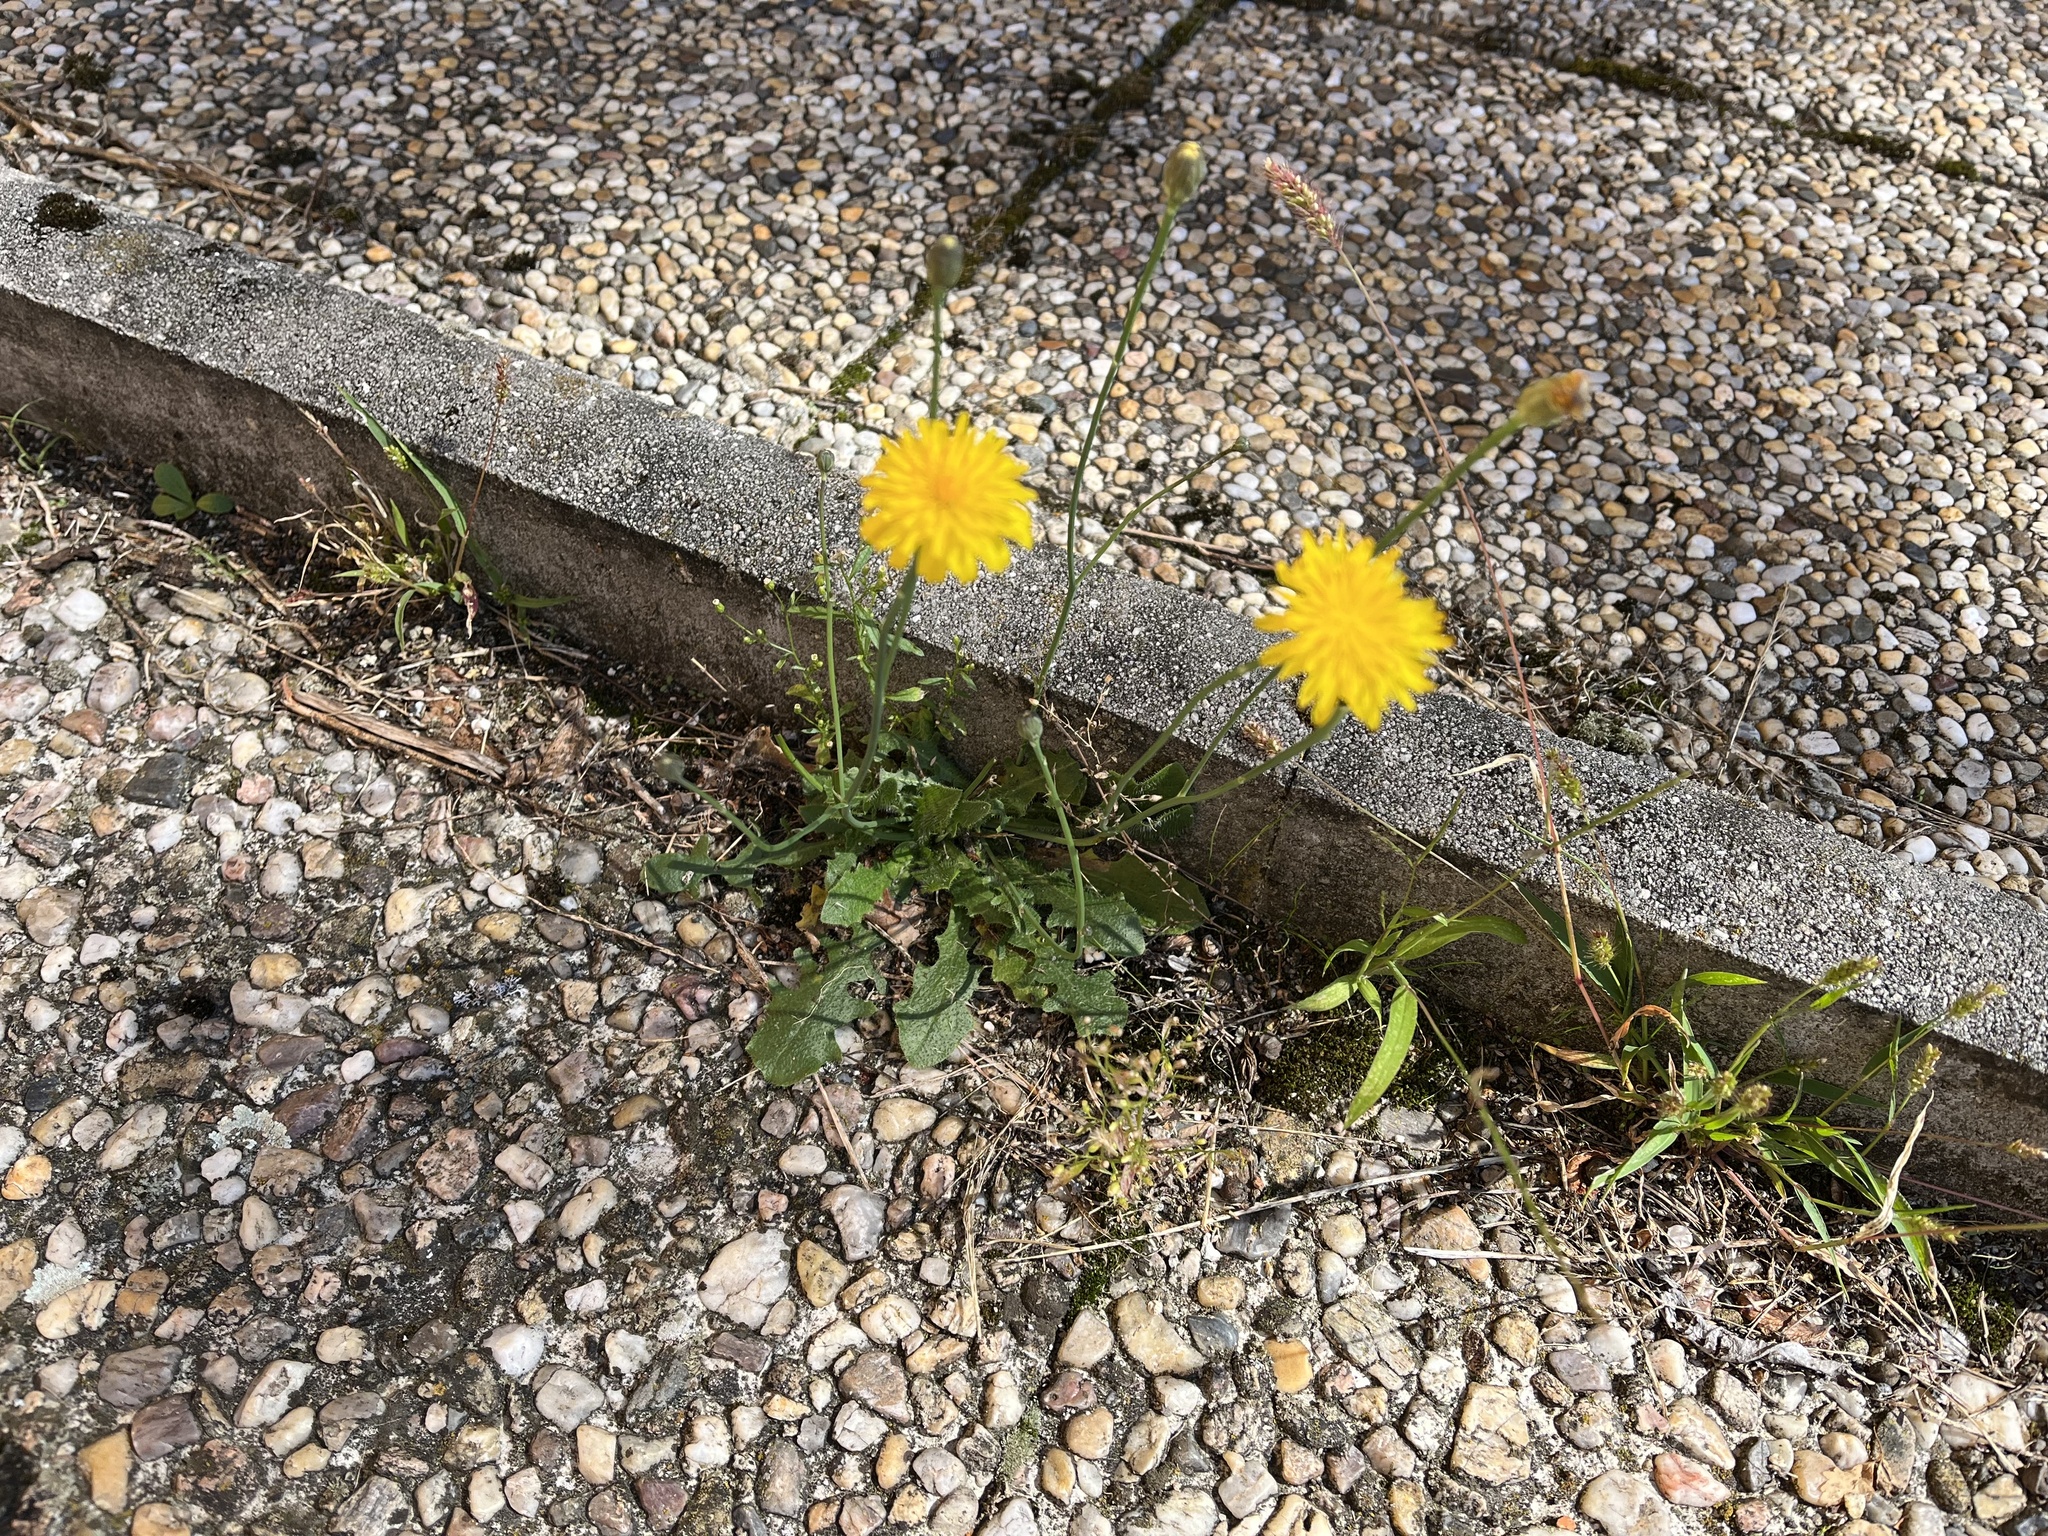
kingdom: Plantae
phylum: Tracheophyta
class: Magnoliopsida
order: Asterales
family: Asteraceae
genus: Hypochaeris
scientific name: Hypochaeris radicata
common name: Flatweed
